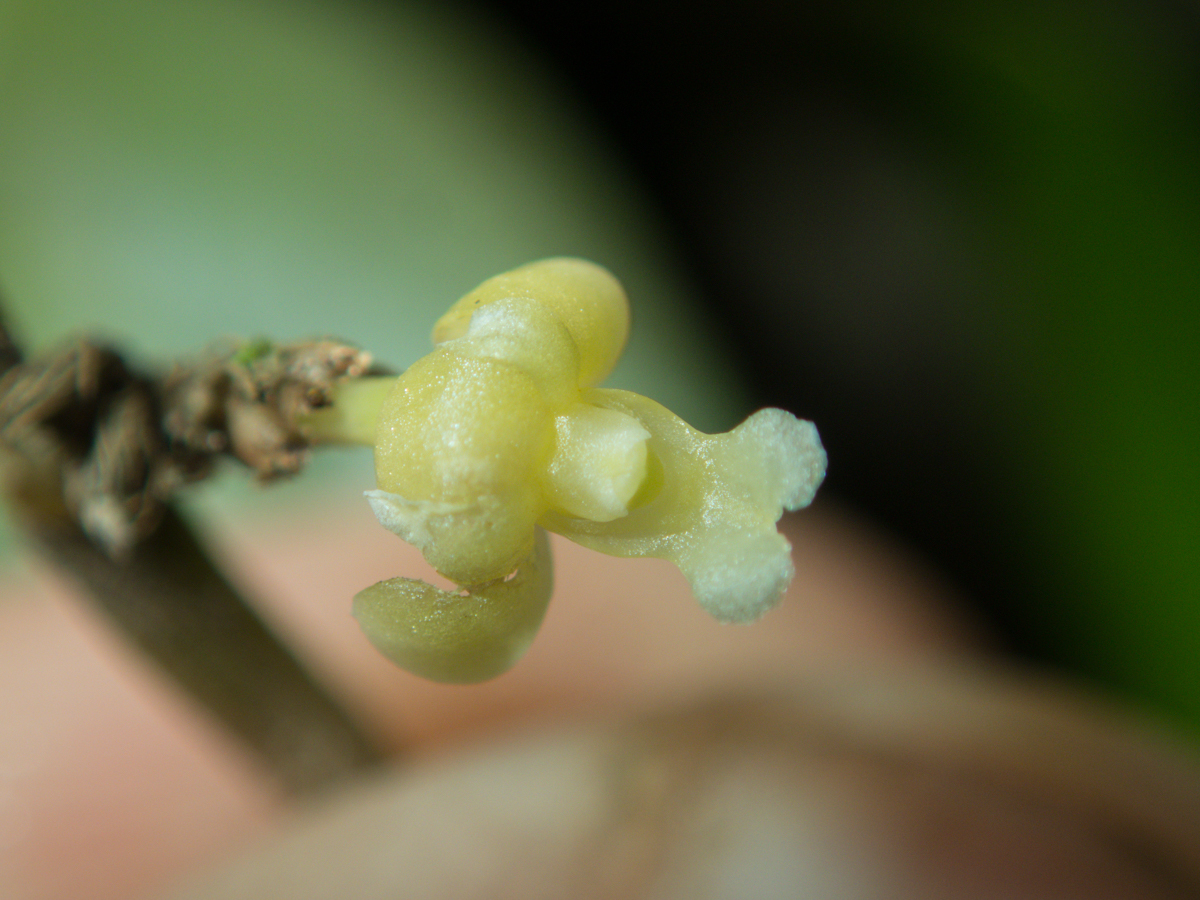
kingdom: Plantae
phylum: Tracheophyta
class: Liliopsida
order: Asparagales
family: Orchidaceae
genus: Dendrobium
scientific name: Dendrobium aloifolium
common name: Aloe-like dendrobium
